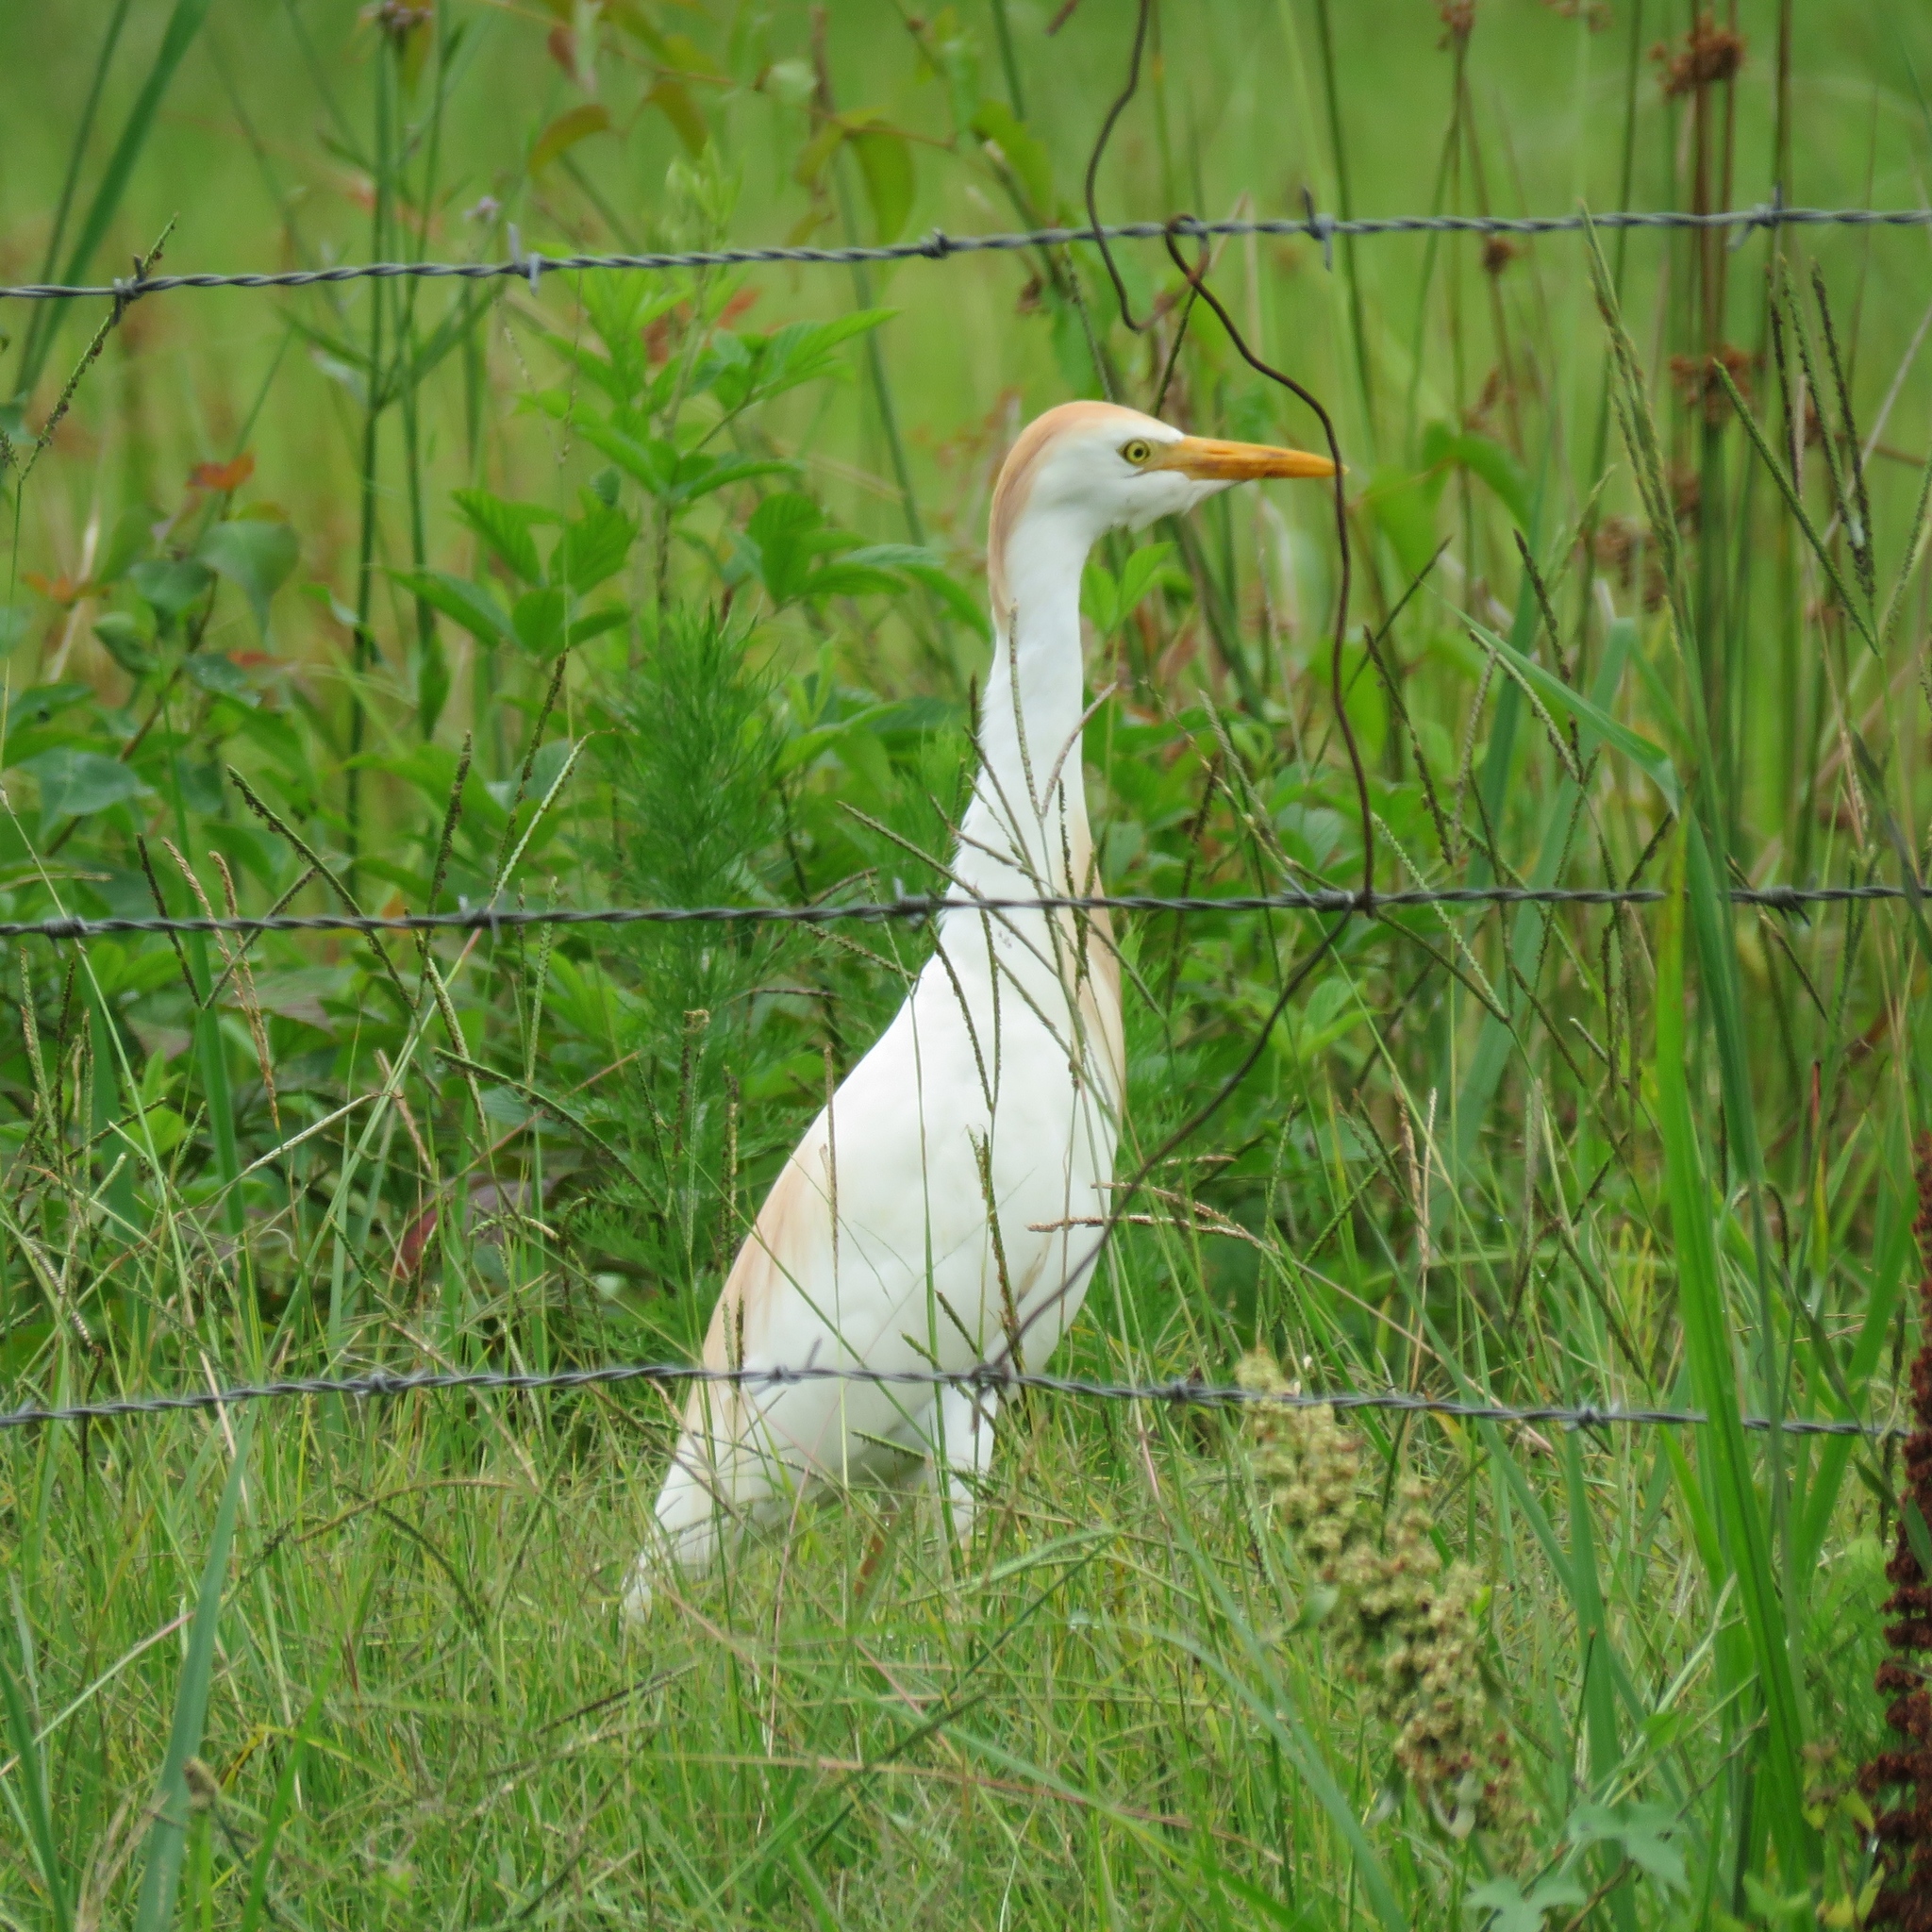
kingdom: Animalia
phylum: Chordata
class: Aves
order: Pelecaniformes
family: Ardeidae
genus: Bubulcus
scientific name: Bubulcus ibis
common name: Cattle egret
